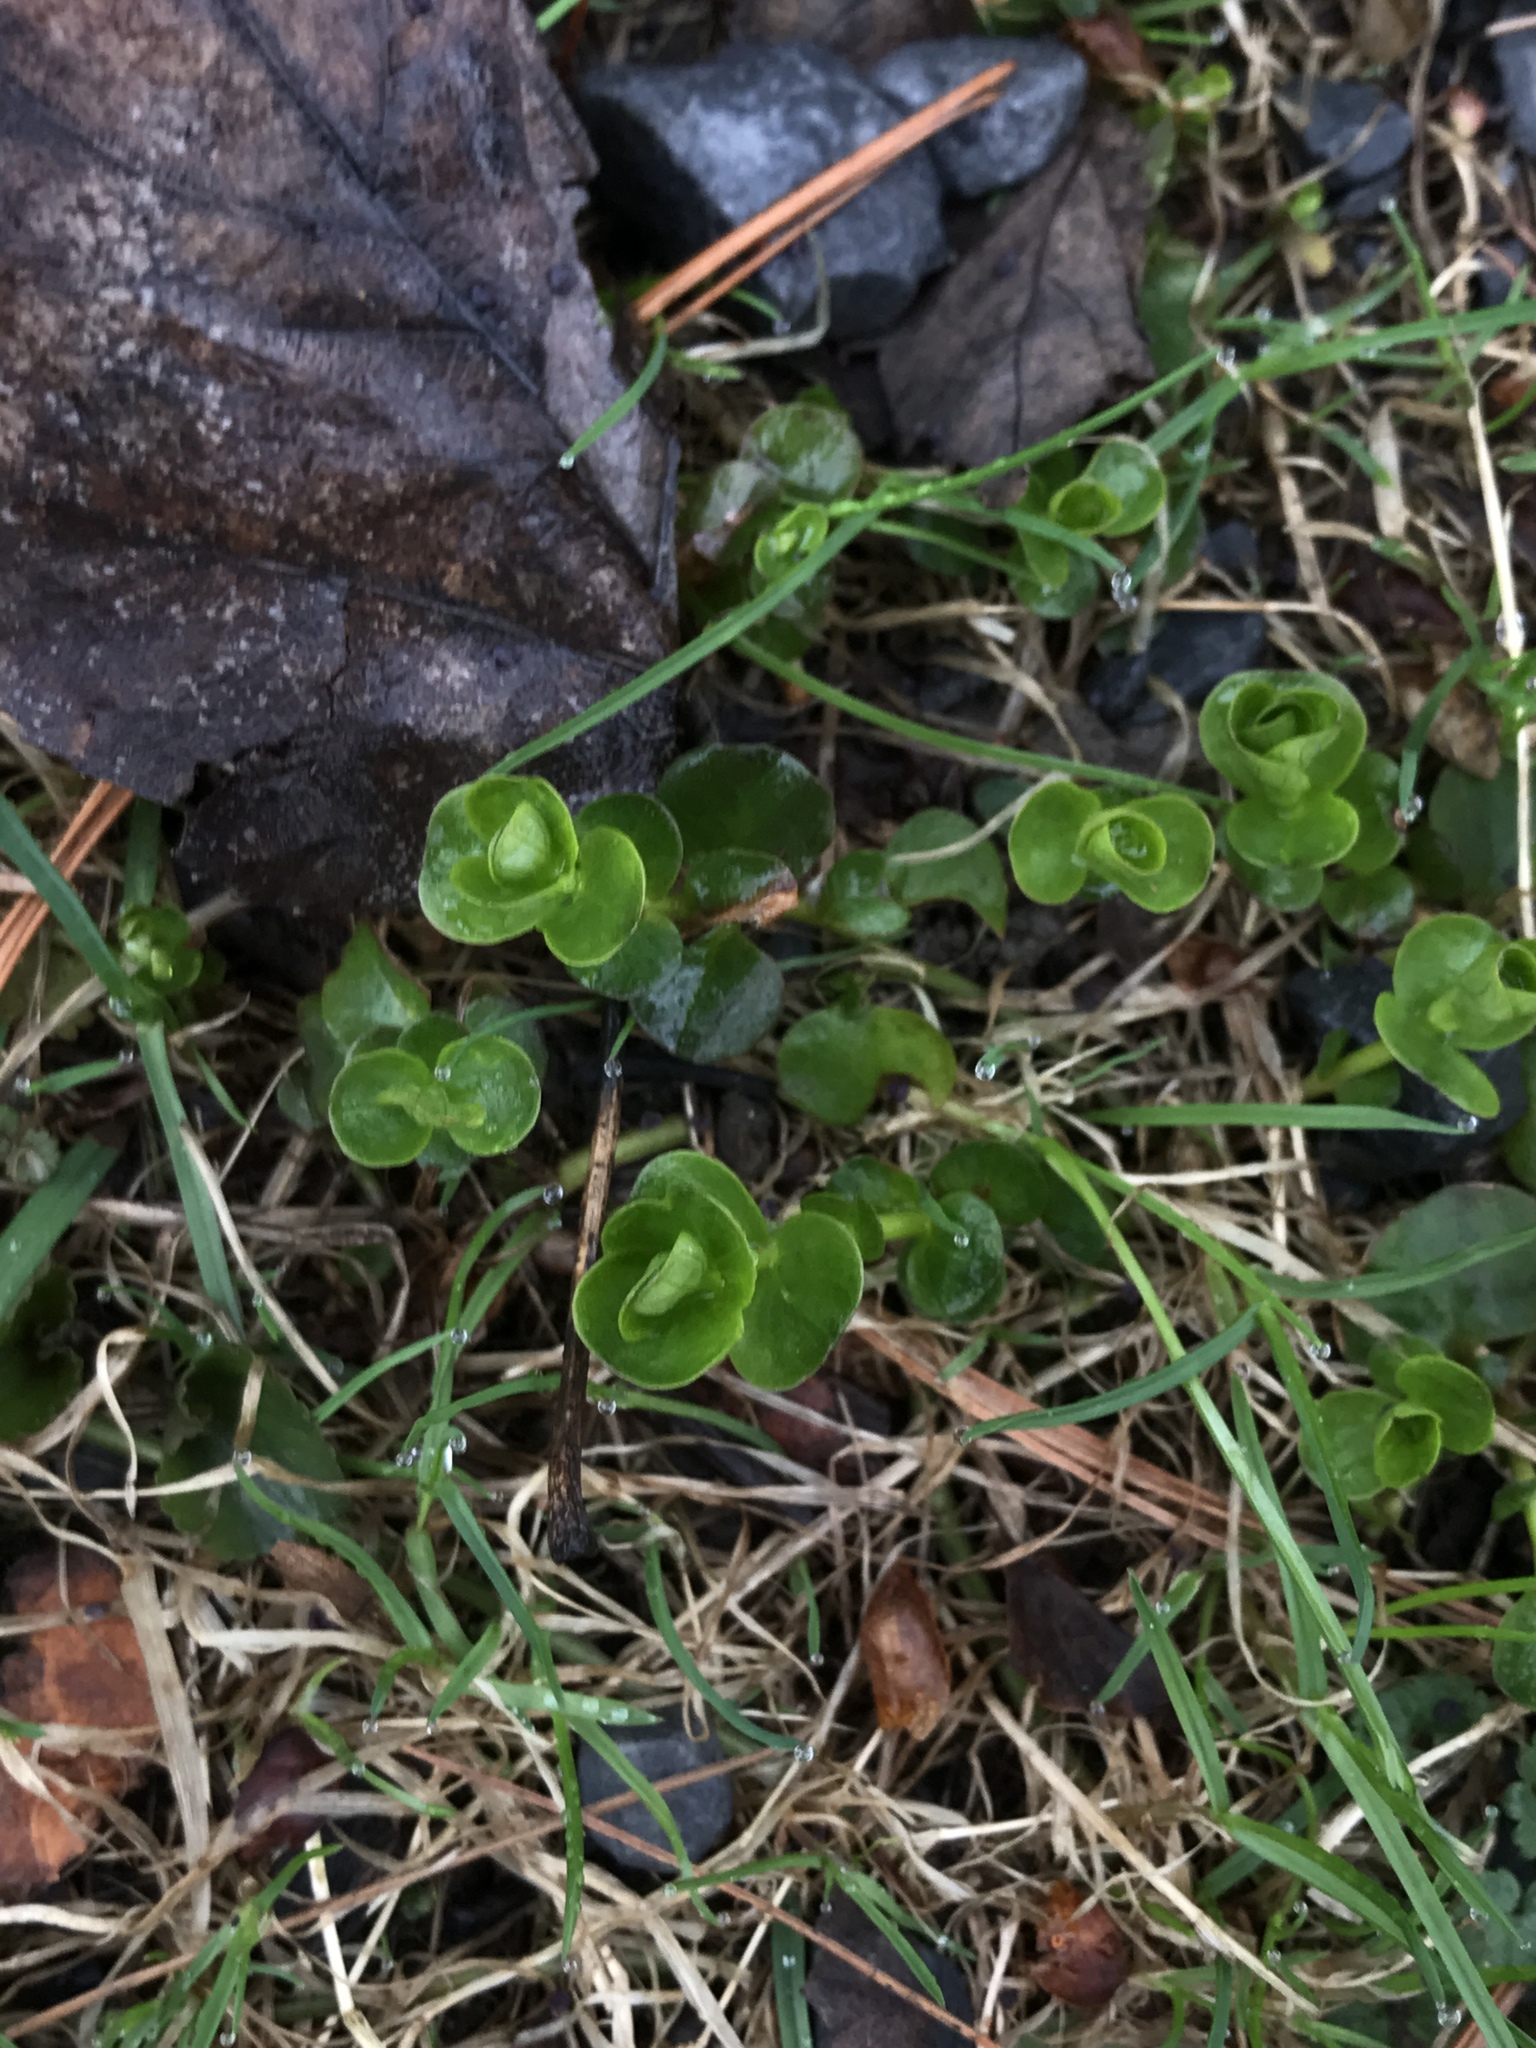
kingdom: Plantae
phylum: Tracheophyta
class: Magnoliopsida
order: Ericales
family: Primulaceae
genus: Lysimachia
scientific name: Lysimachia nummularia
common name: Moneywort
